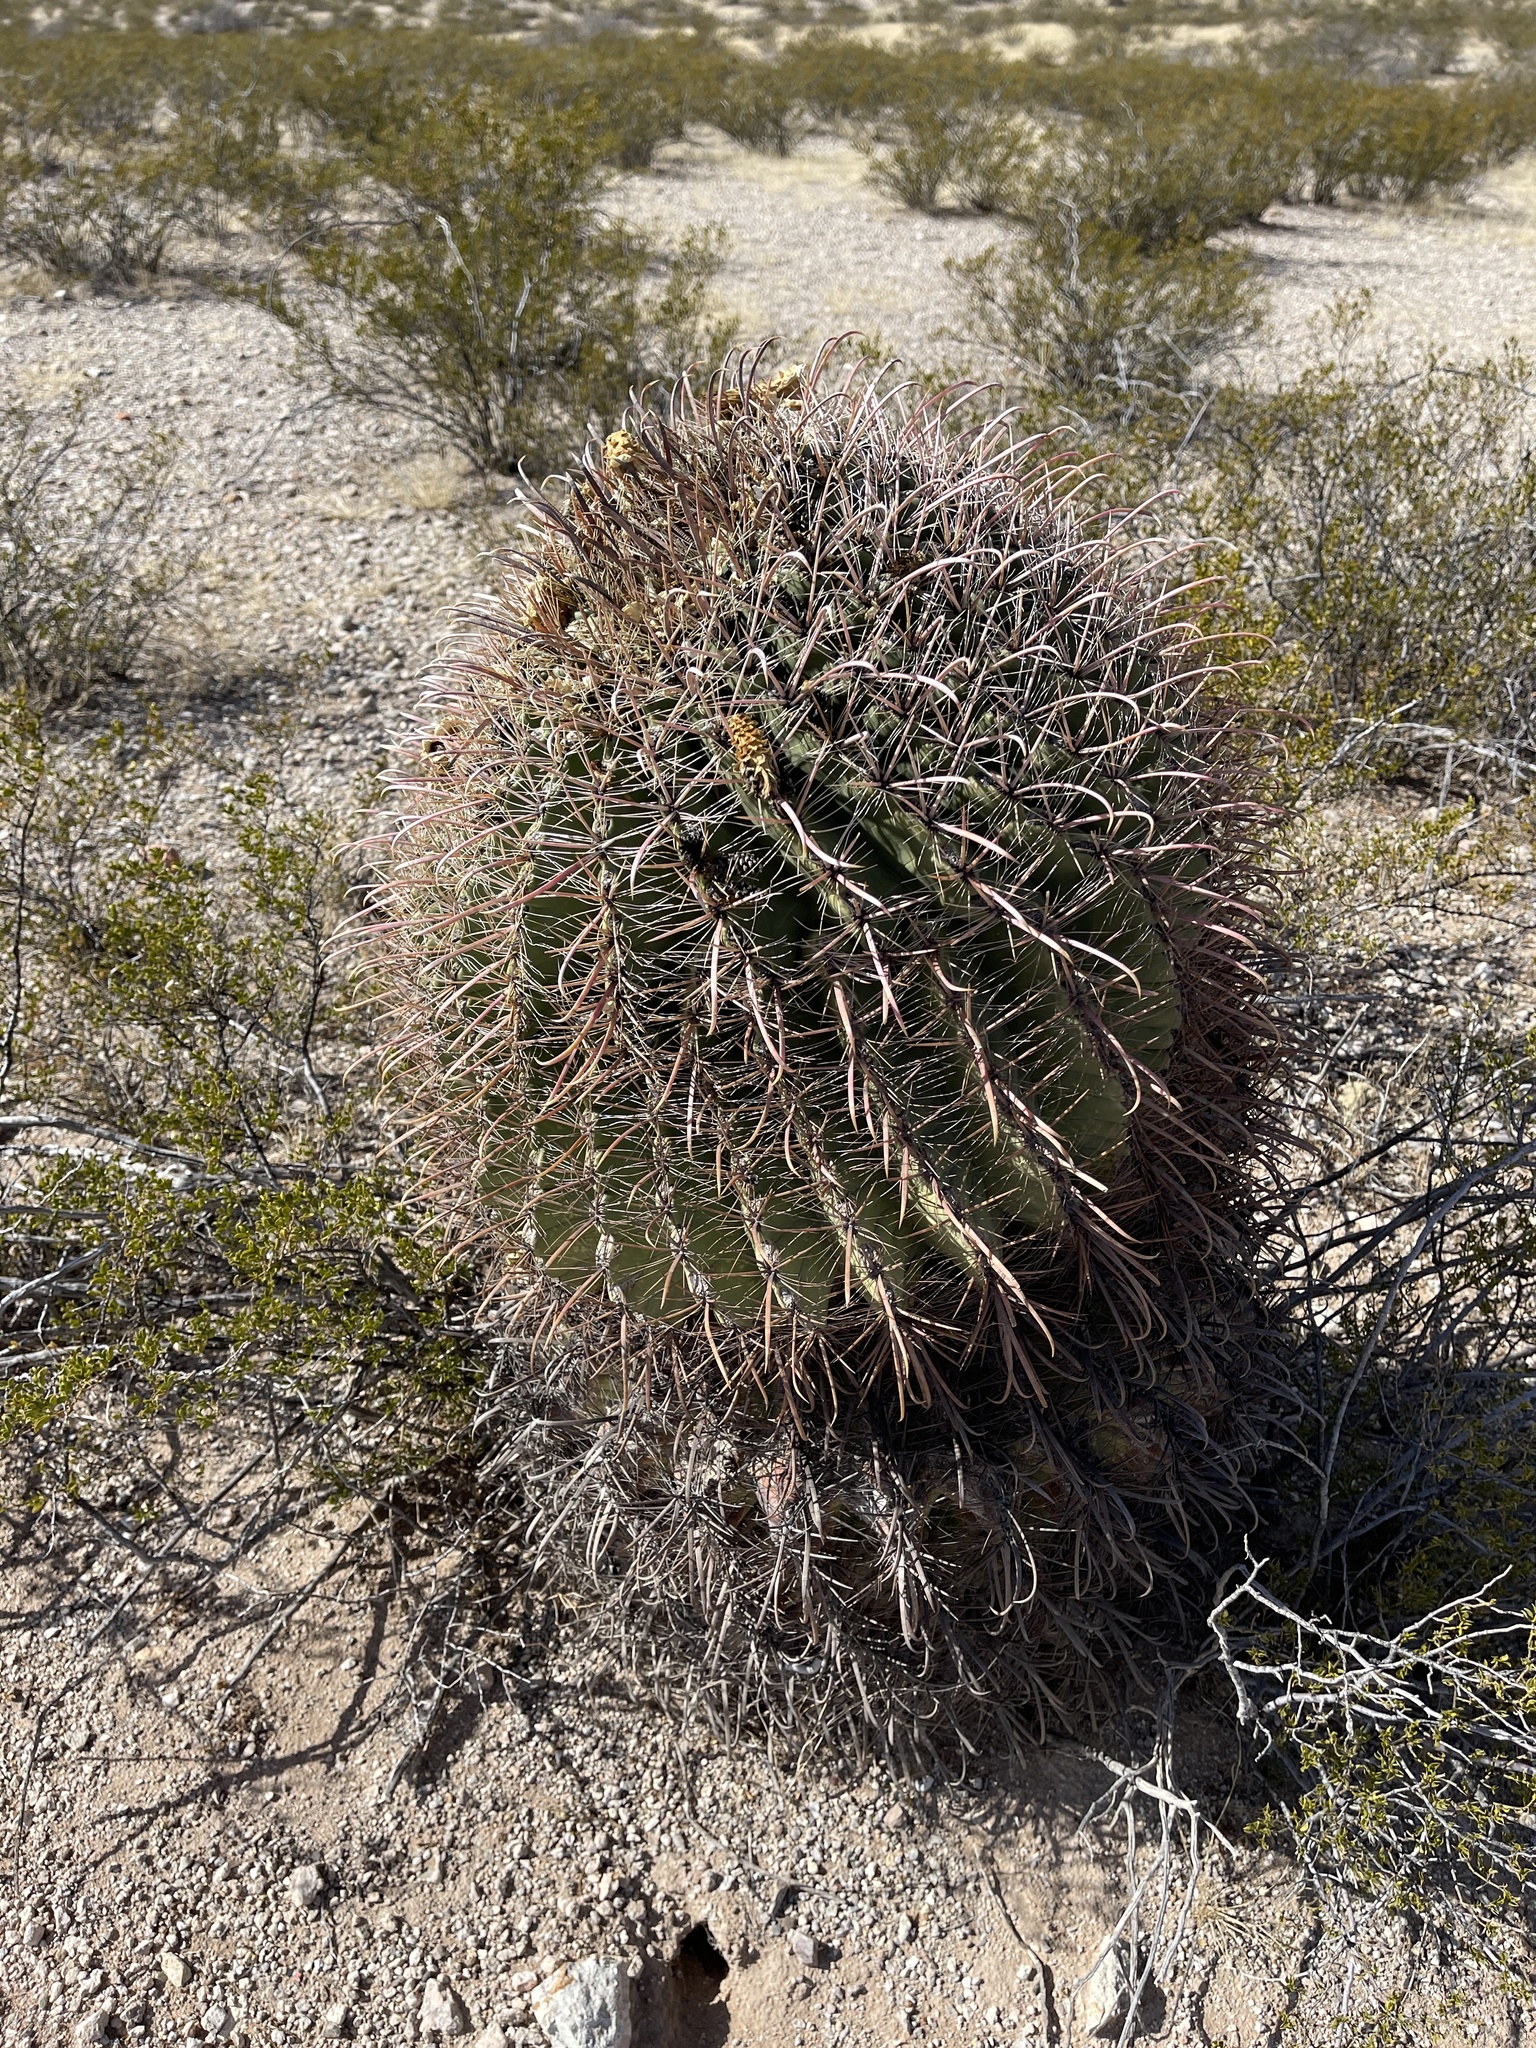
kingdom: Plantae
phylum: Tracheophyta
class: Magnoliopsida
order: Caryophyllales
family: Cactaceae
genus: Ferocactus
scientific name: Ferocactus wislizeni
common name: Candy barrel cactus
